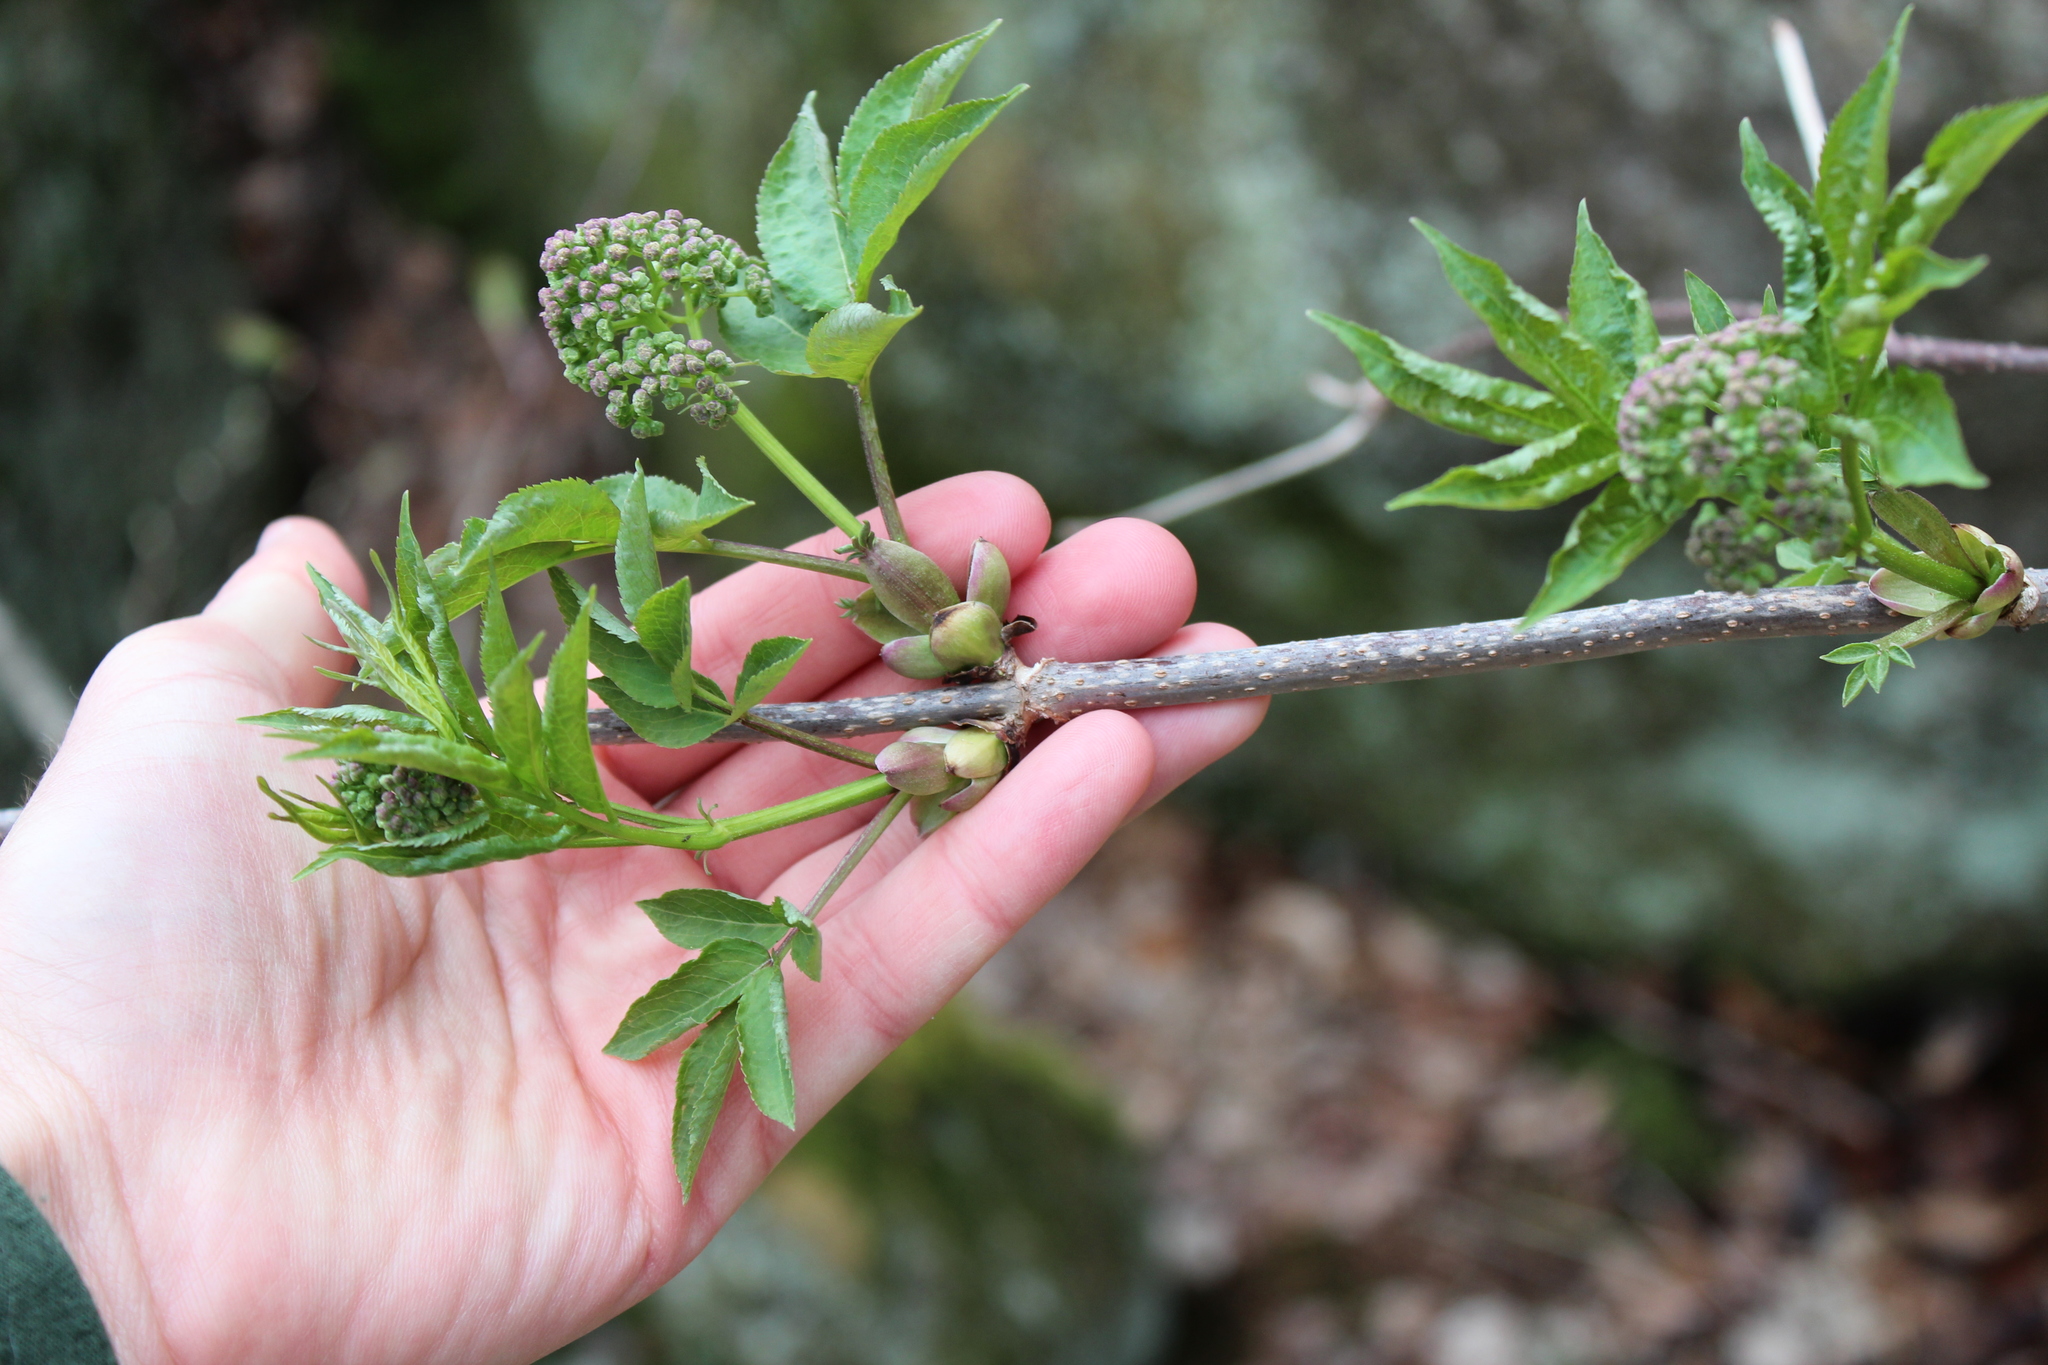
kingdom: Plantae
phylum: Tracheophyta
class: Magnoliopsida
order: Dipsacales
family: Viburnaceae
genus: Sambucus
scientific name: Sambucus racemosa
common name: Red-berried elder
